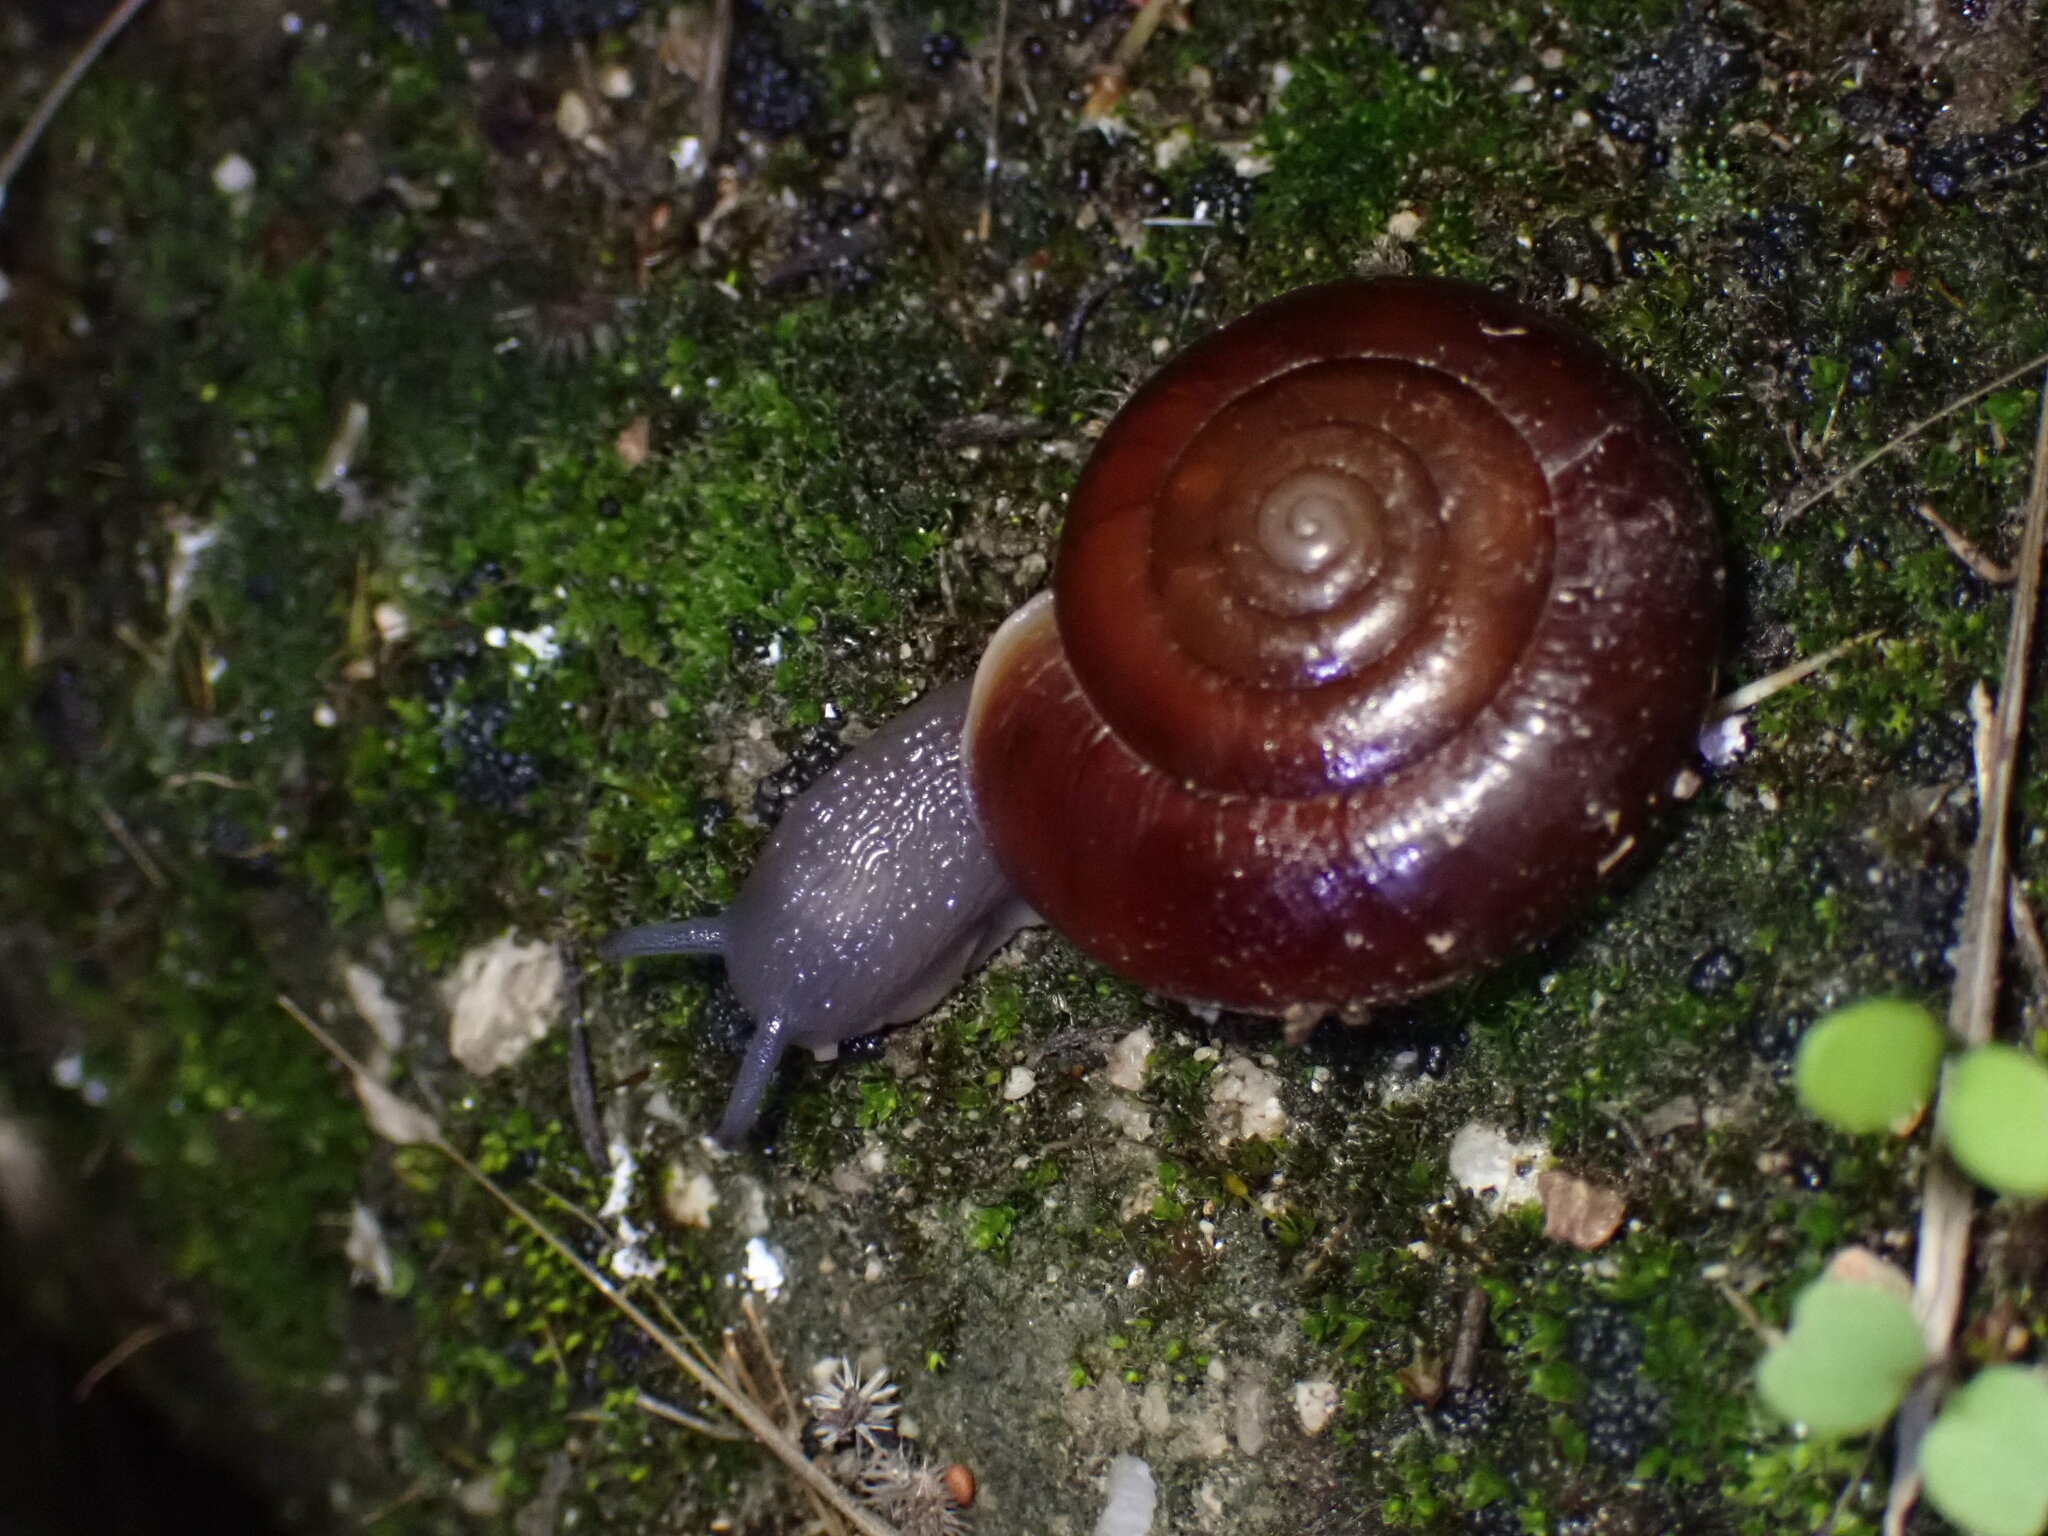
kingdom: Animalia
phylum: Mollusca
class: Gastropoda
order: Stylommatophora
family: Megomphicidae
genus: Glyptostoma
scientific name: Glyptostoma gabrielense
